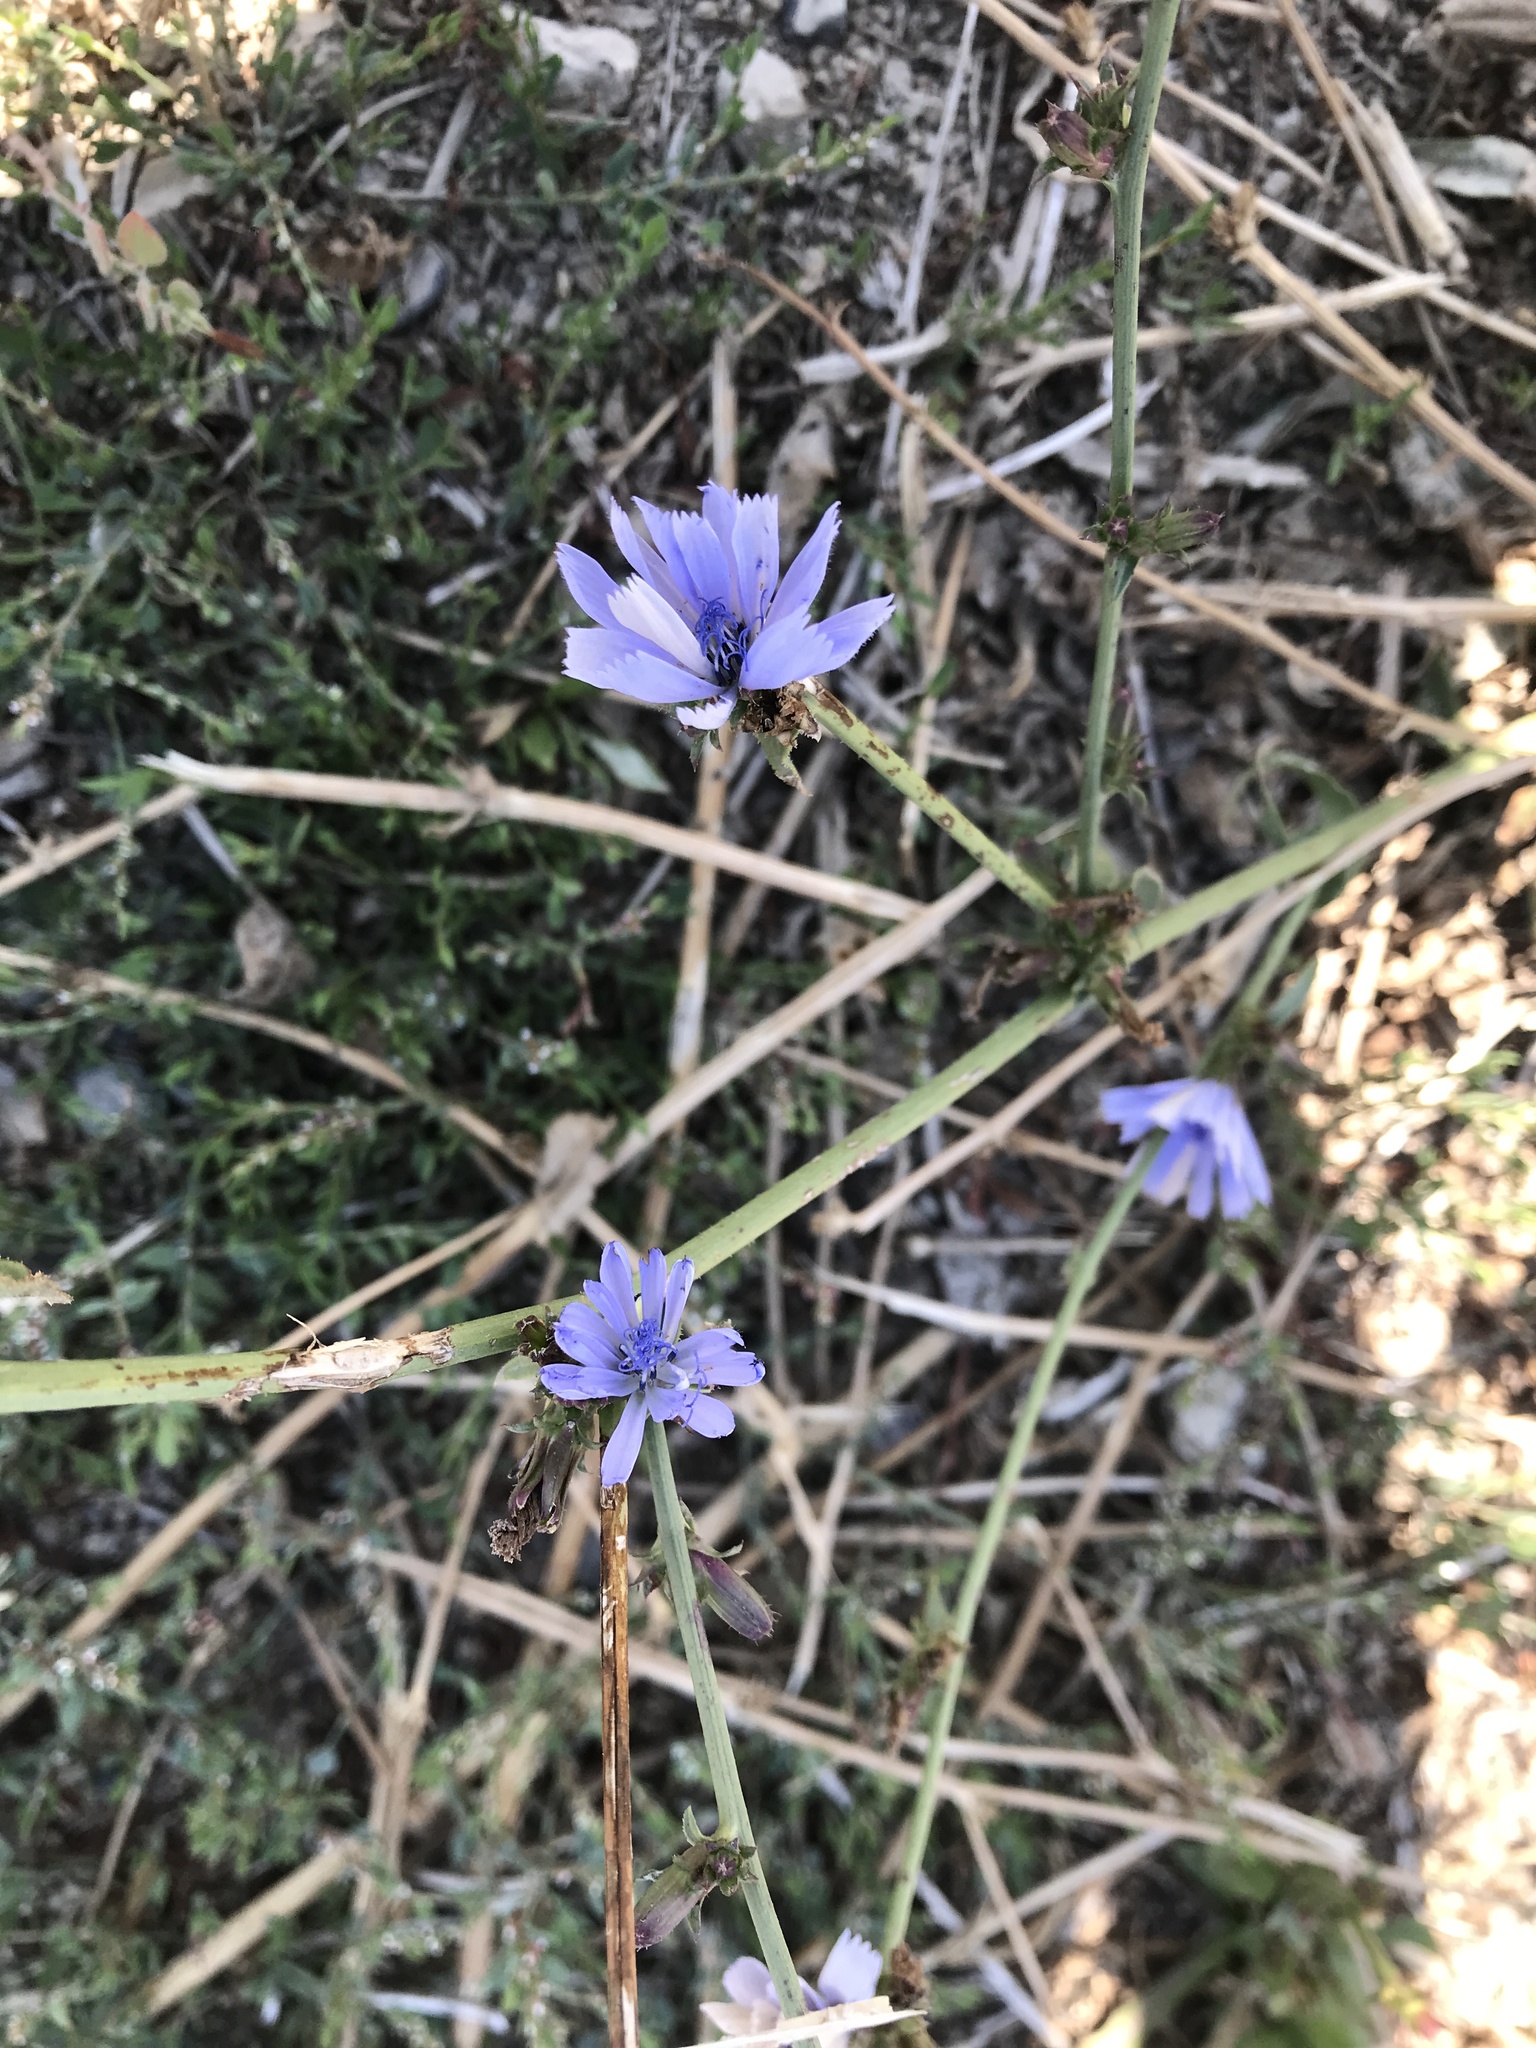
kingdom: Plantae
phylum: Tracheophyta
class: Magnoliopsida
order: Asterales
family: Asteraceae
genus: Cichorium
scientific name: Cichorium intybus
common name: Chicory
